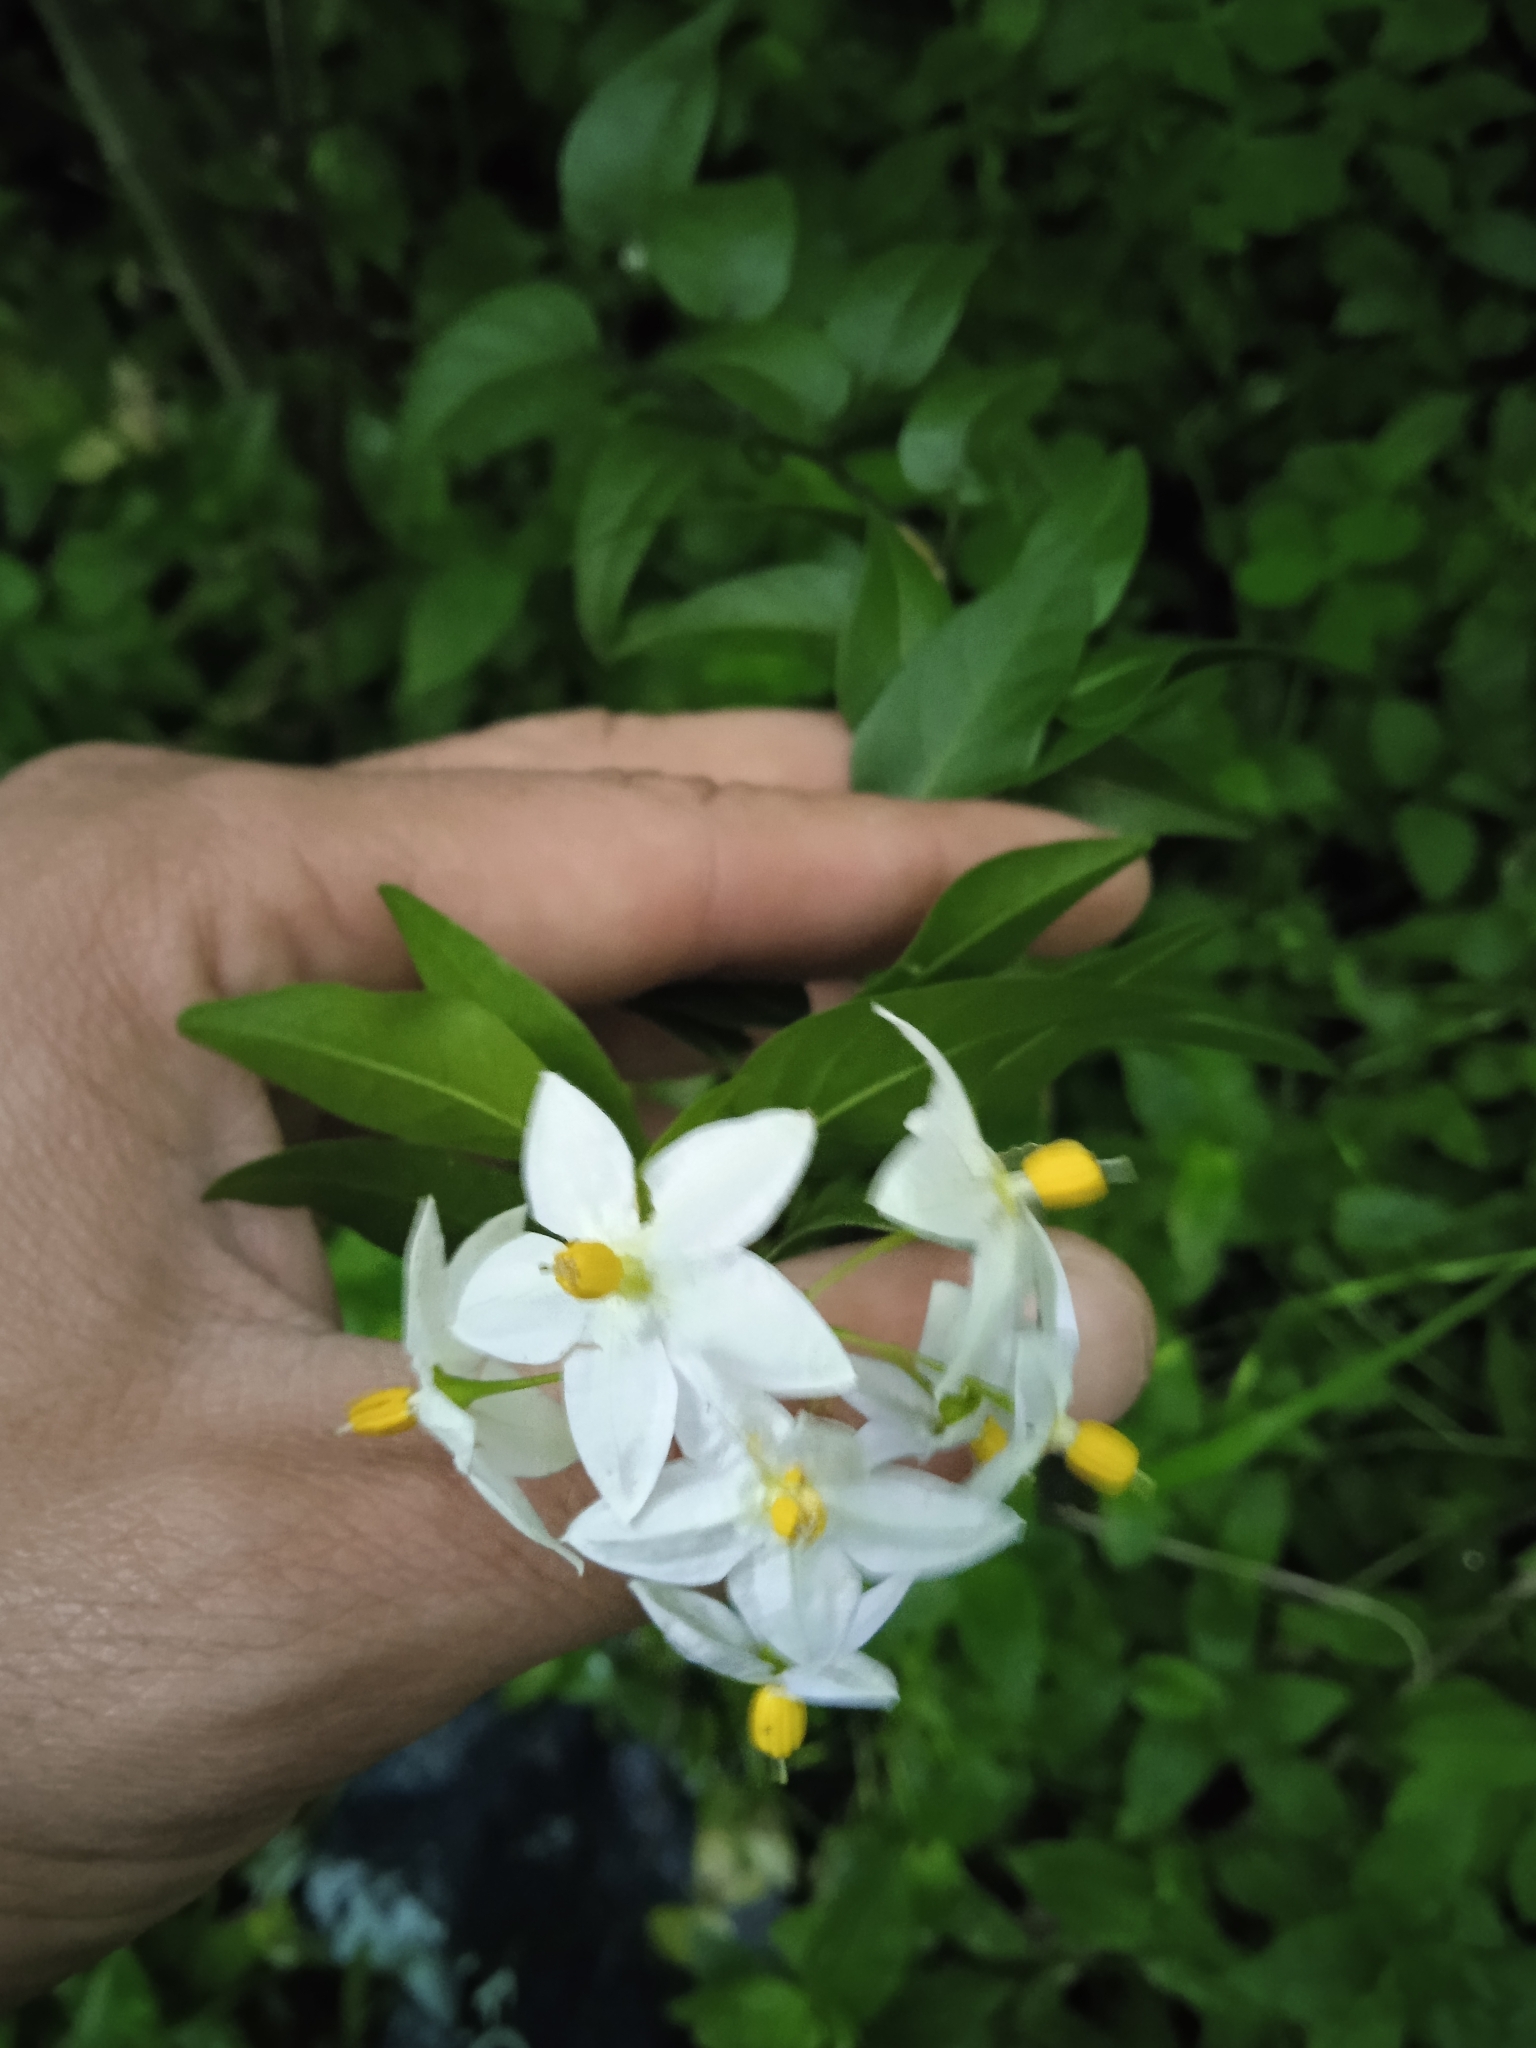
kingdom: Plantae
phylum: Tracheophyta
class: Magnoliopsida
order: Solanales
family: Solanaceae
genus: Solanum
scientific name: Solanum laxum
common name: Nightshade
